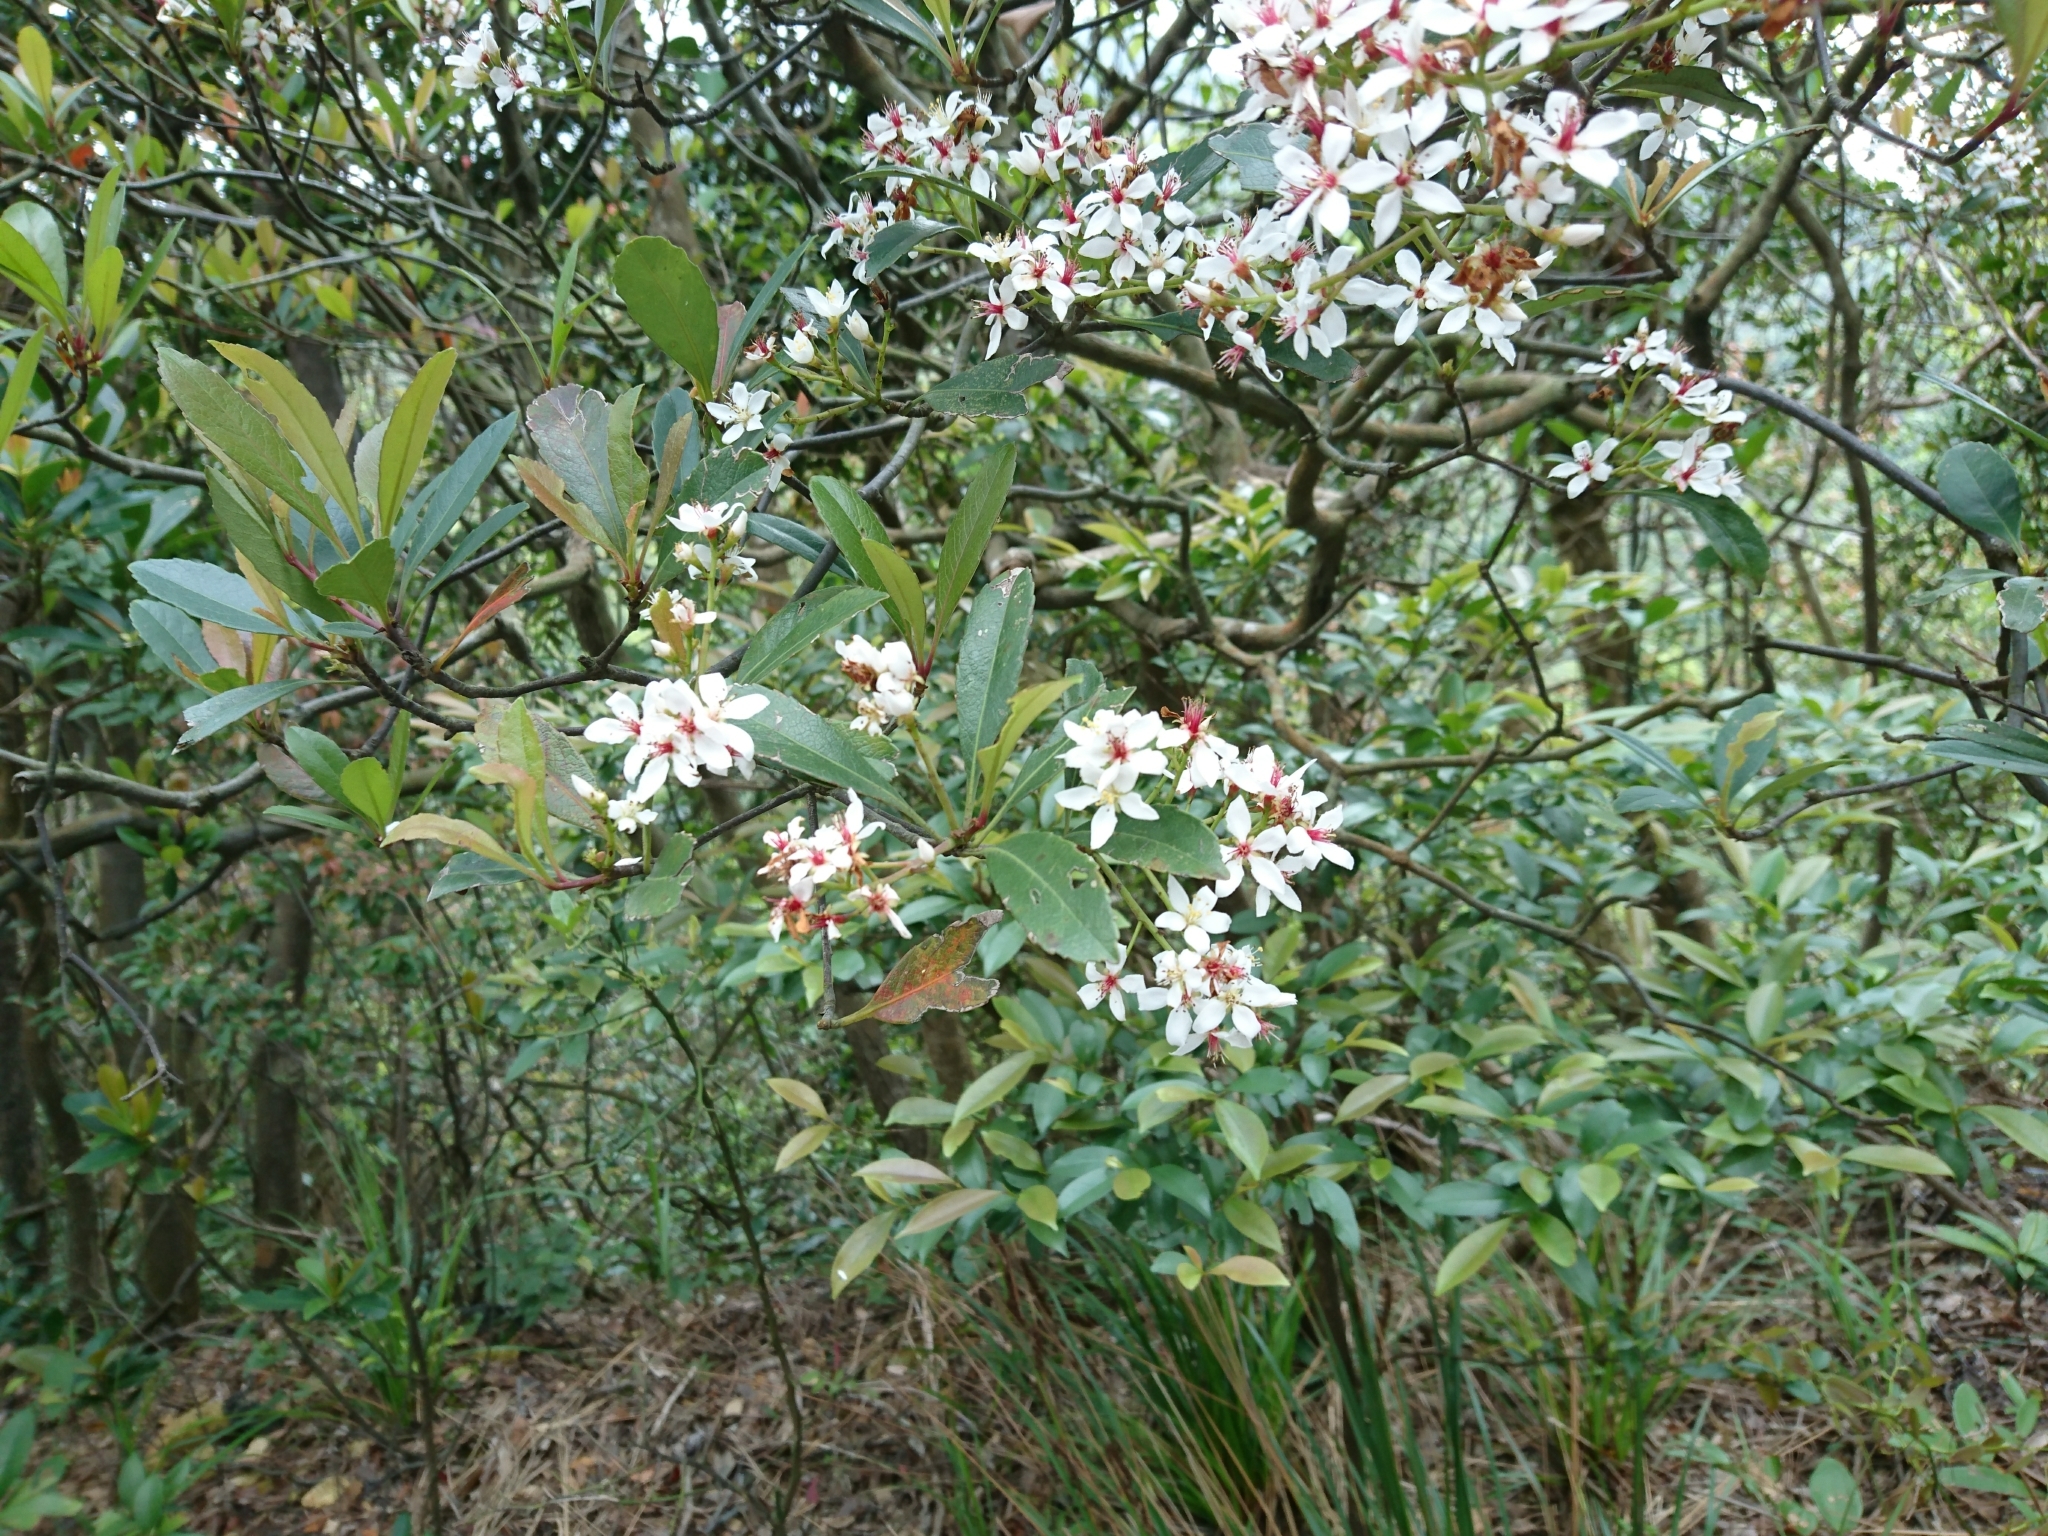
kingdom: Plantae
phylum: Tracheophyta
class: Magnoliopsida
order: Rosales
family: Rosaceae
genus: Rhaphiolepis
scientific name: Rhaphiolepis indica
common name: India-hawthorn
